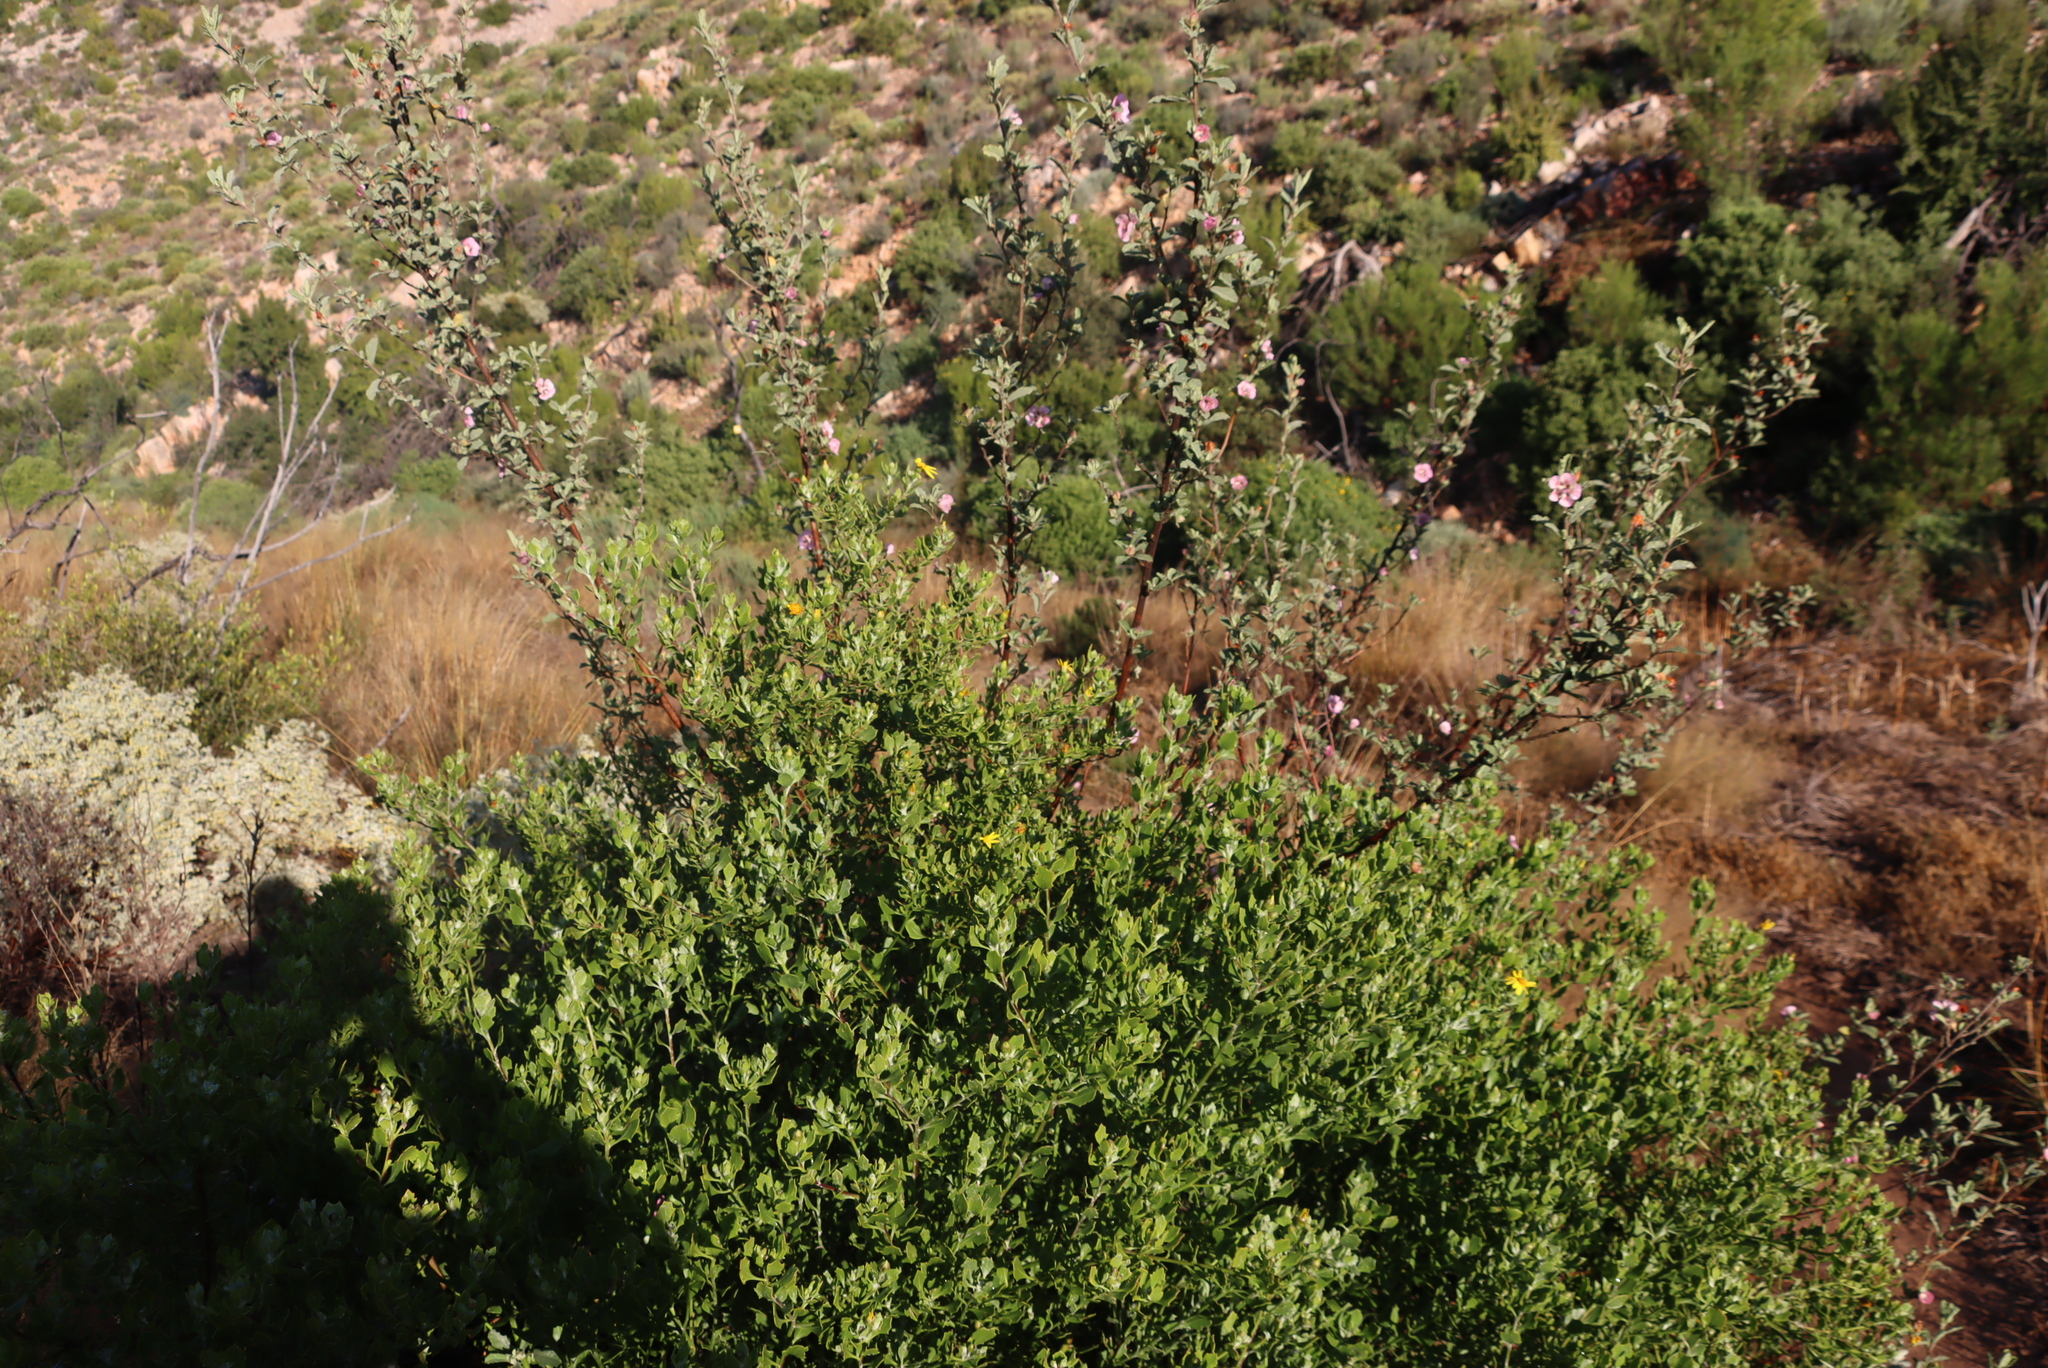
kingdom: Plantae
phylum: Tracheophyta
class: Magnoliopsida
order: Malvales
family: Malvaceae
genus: Anisodontea
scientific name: Anisodontea scabrosa
